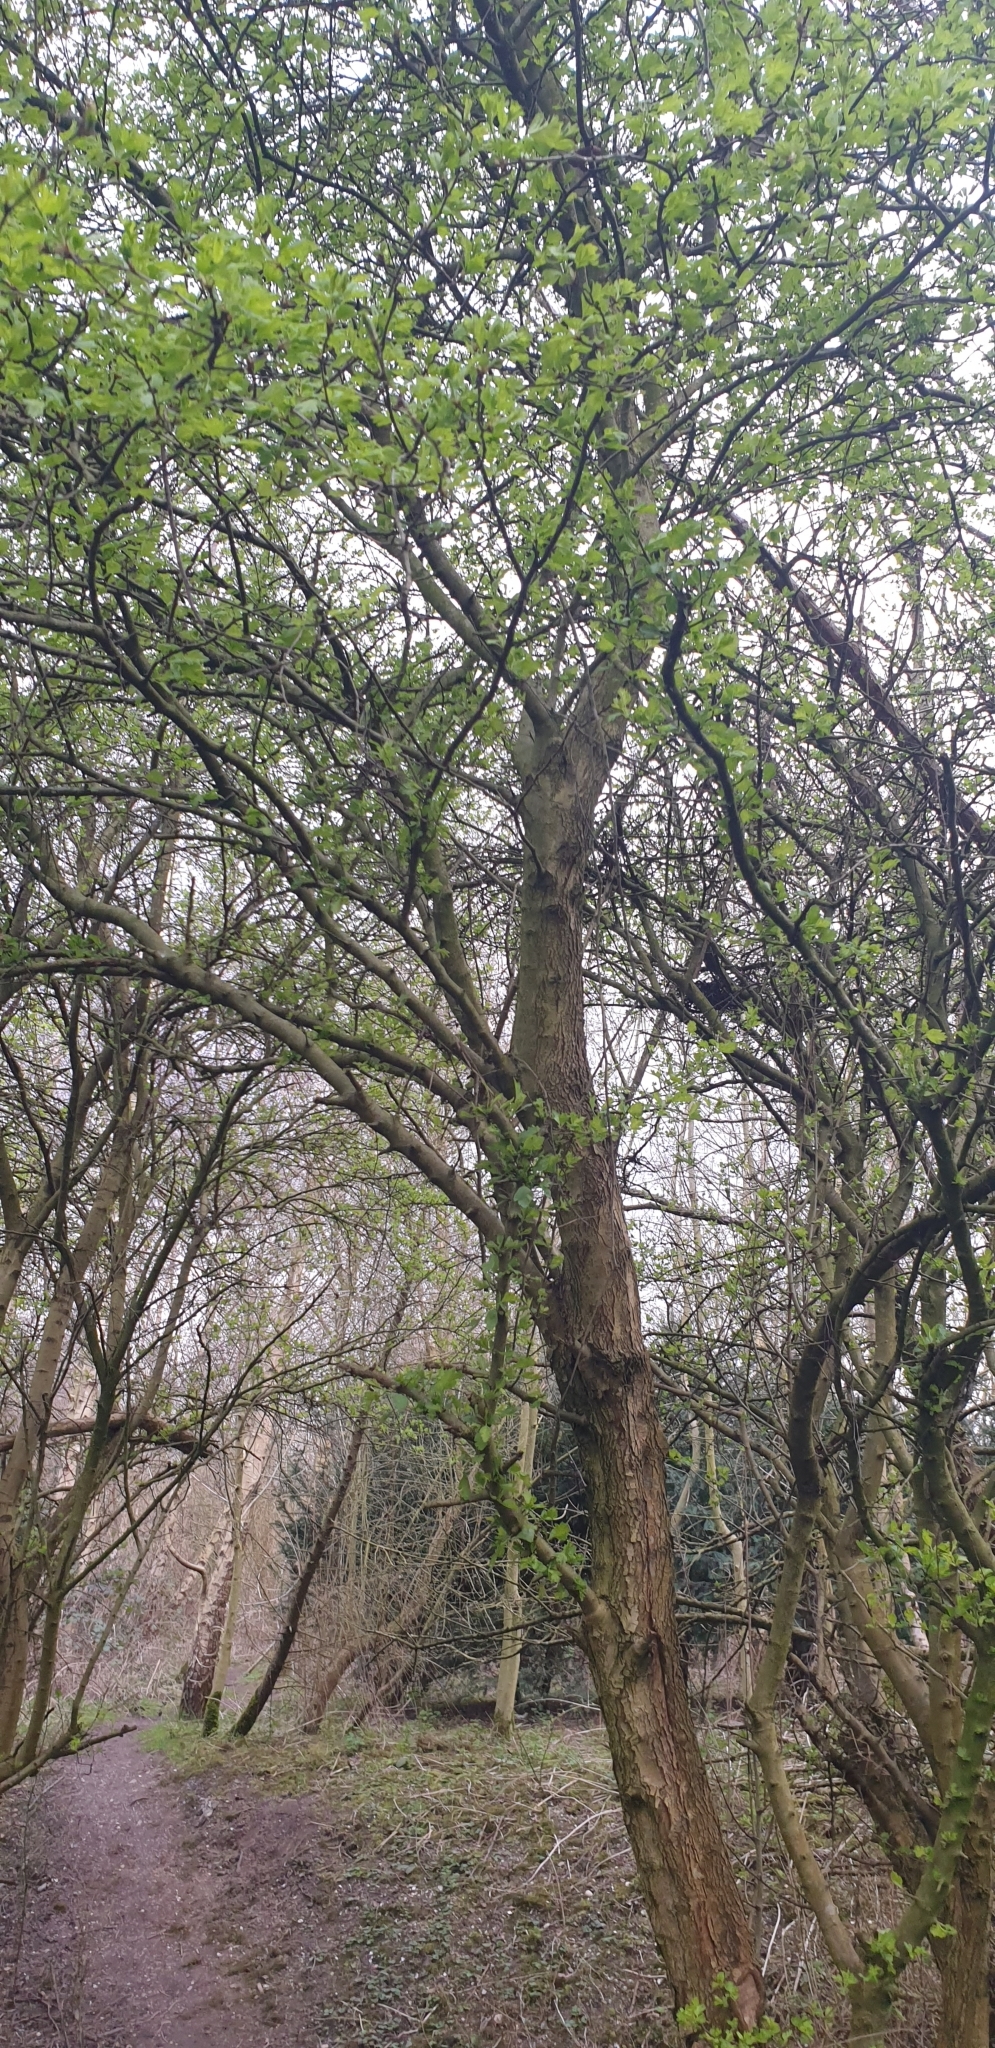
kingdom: Plantae
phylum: Tracheophyta
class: Magnoliopsida
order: Rosales
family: Rosaceae
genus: Crataegus
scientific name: Crataegus monogyna
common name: Hawthorn
